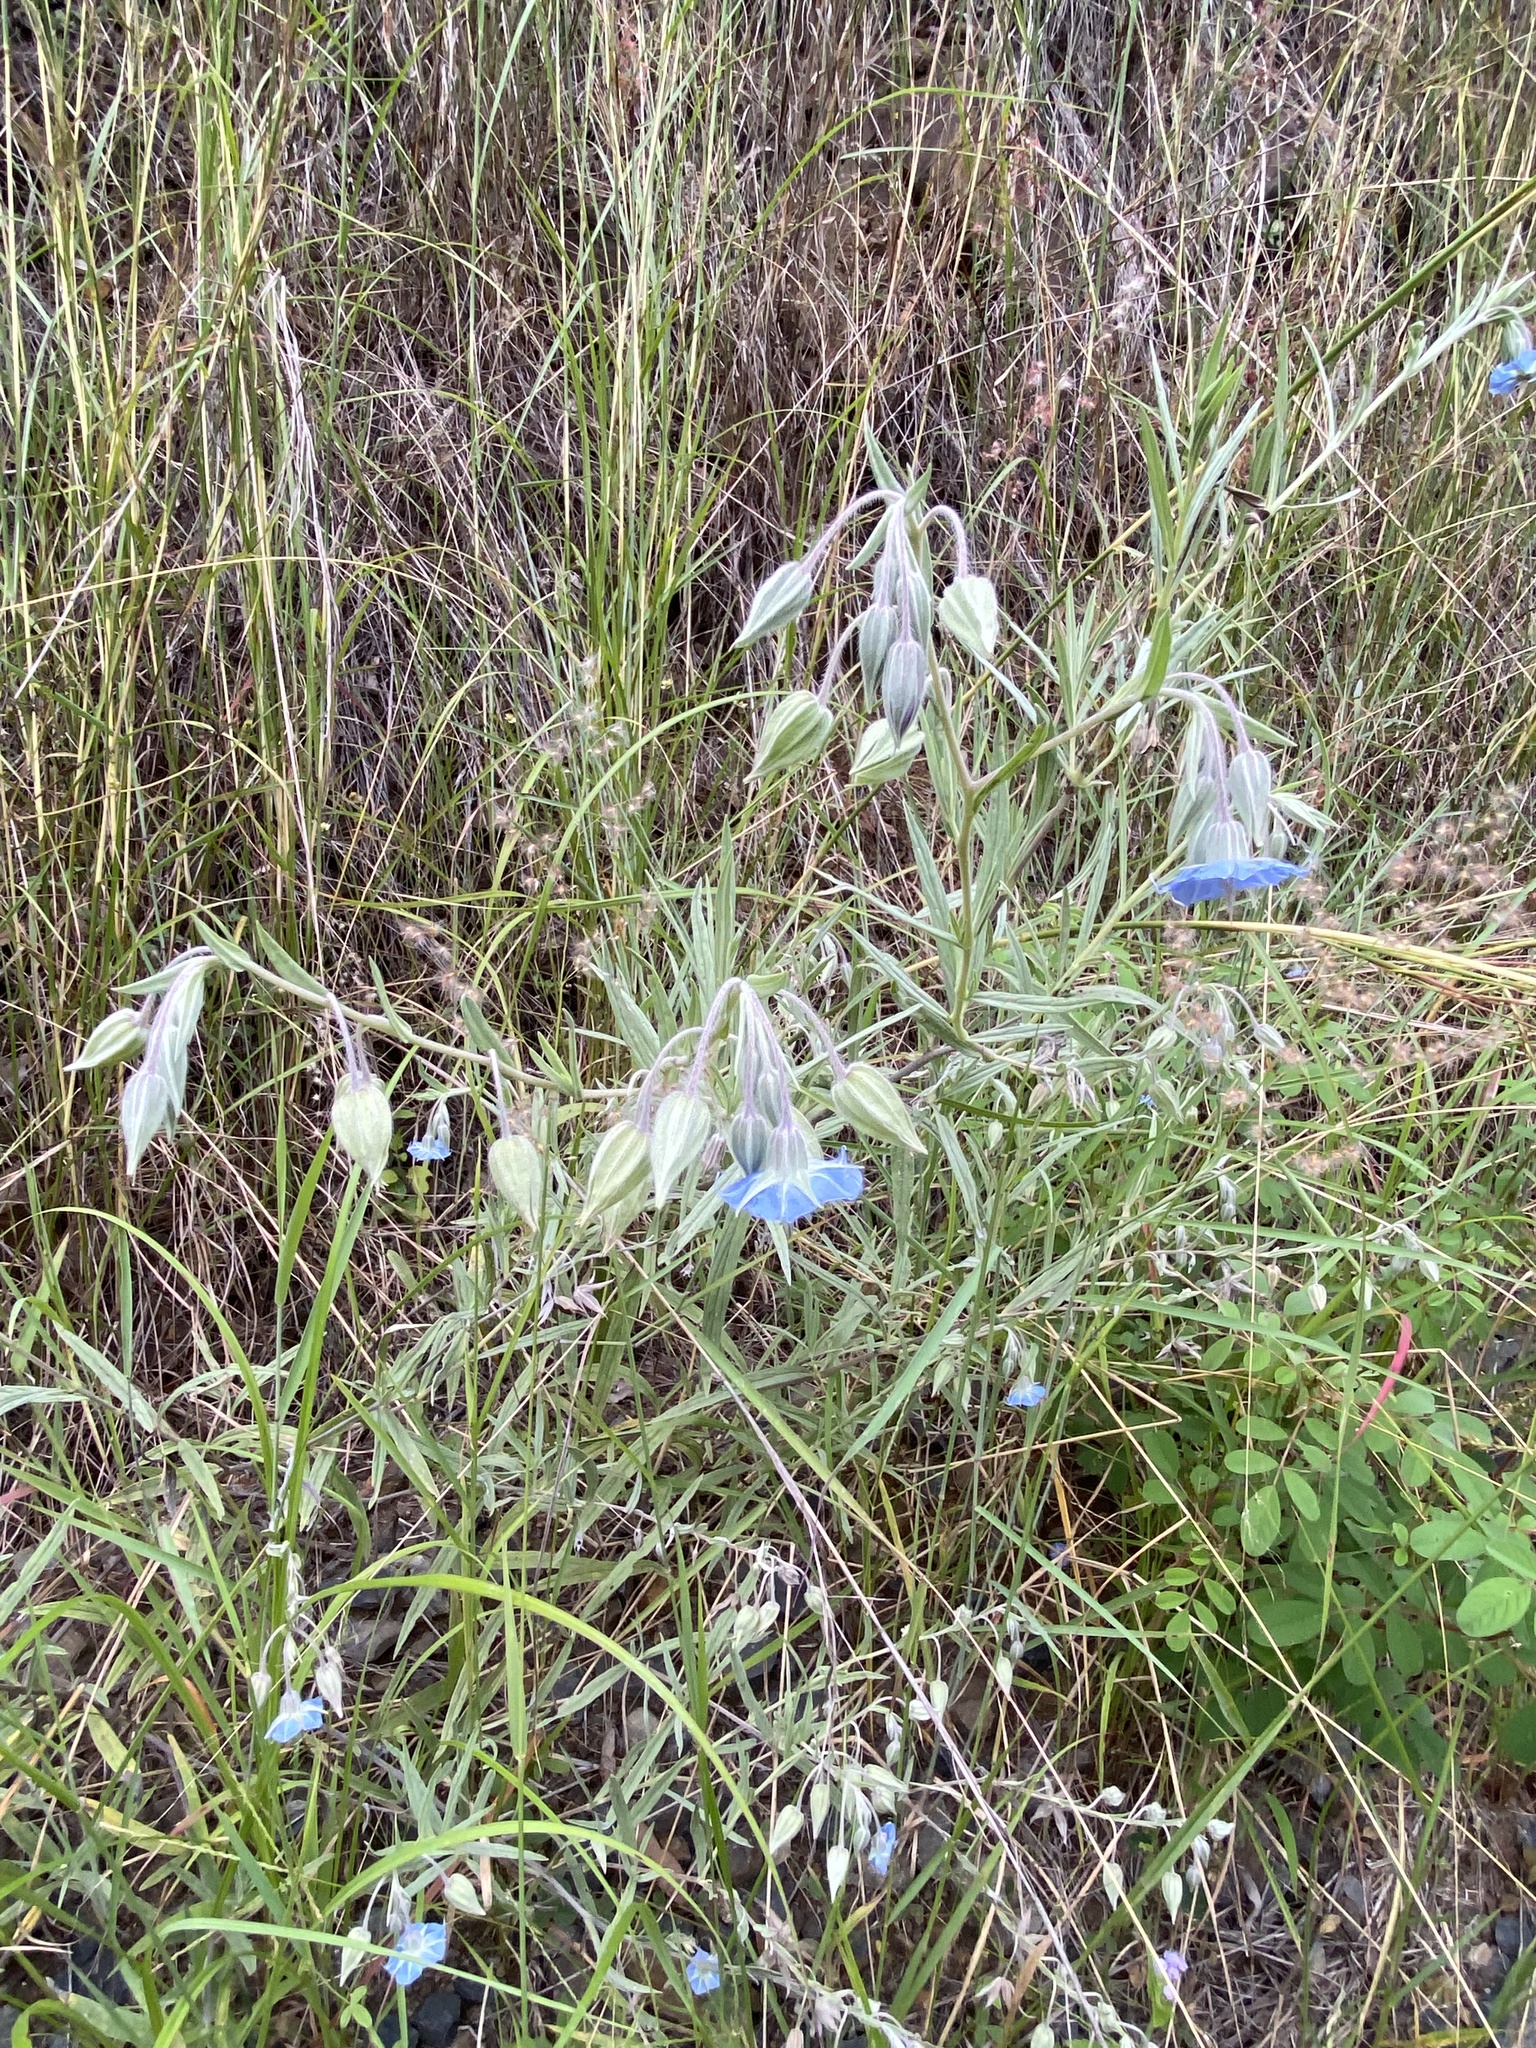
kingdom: Plantae
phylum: Tracheophyta
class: Magnoliopsida
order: Boraginales
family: Boraginaceae
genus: Trichodesma
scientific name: Trichodesma zeylanicum
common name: Camelbush
